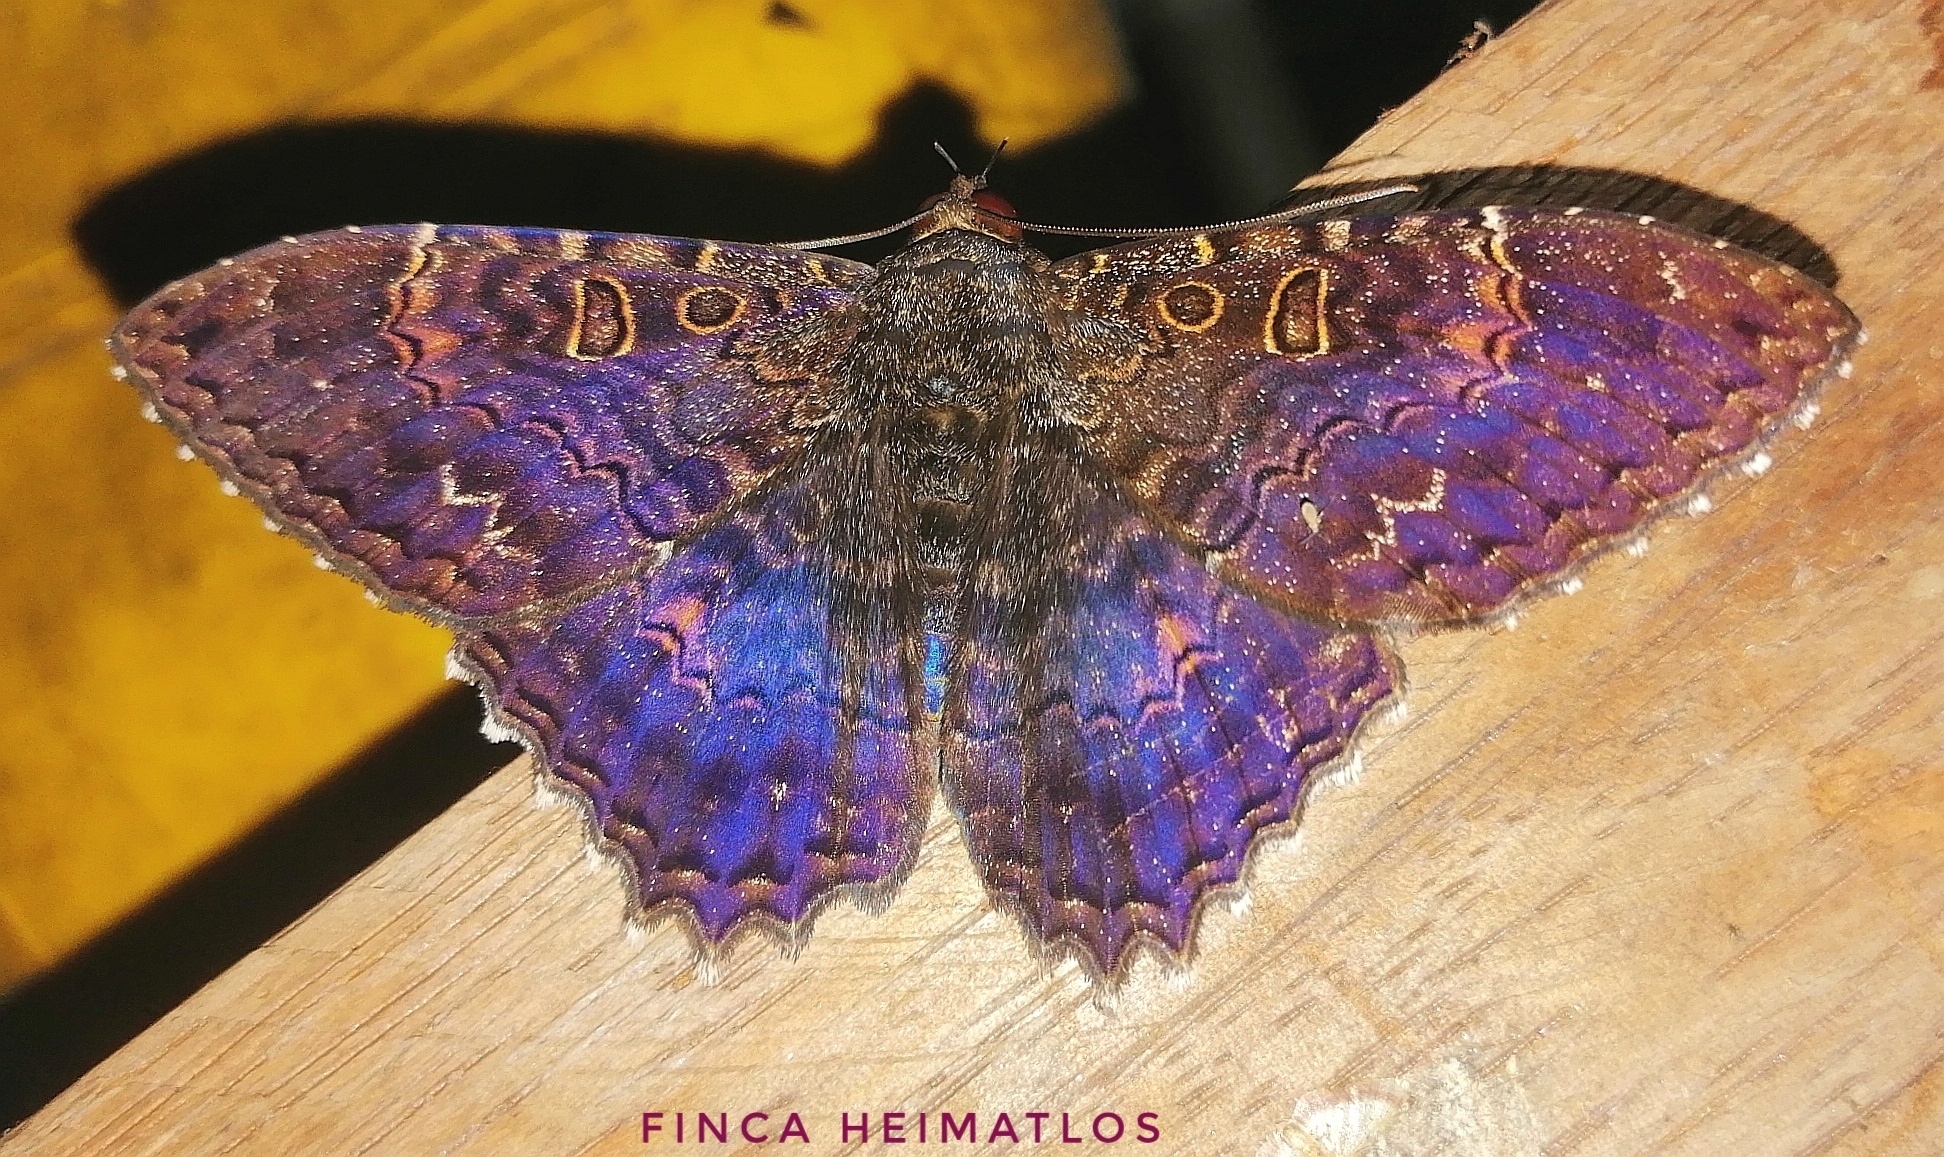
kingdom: Animalia
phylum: Arthropoda
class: Insecta
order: Lepidoptera
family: Erebidae
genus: Letis
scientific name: Letis albidentina
